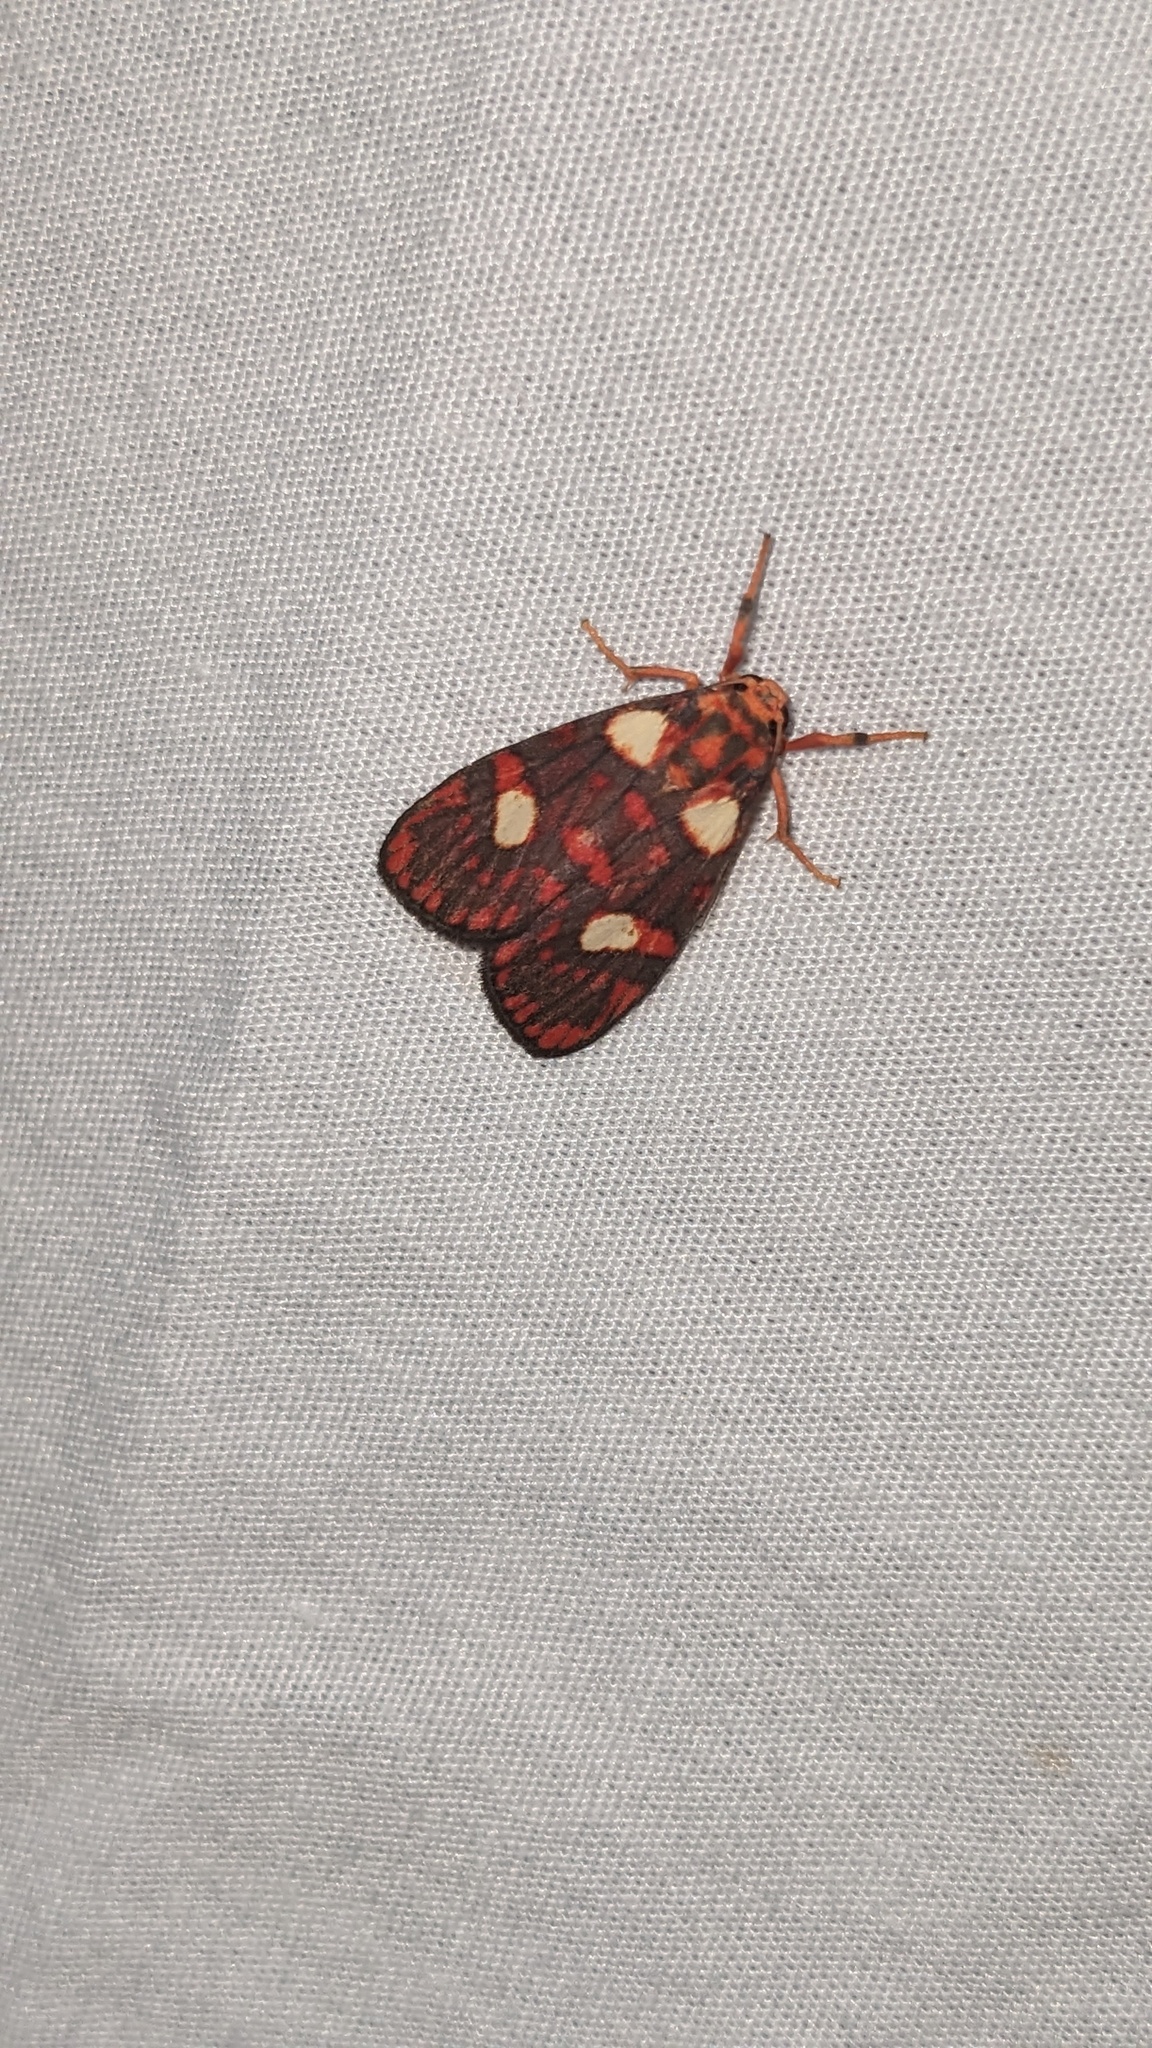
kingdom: Animalia
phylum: Arthropoda
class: Insecta
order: Lepidoptera
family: Erebidae
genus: Cyme
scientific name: Cyme phryctopa
